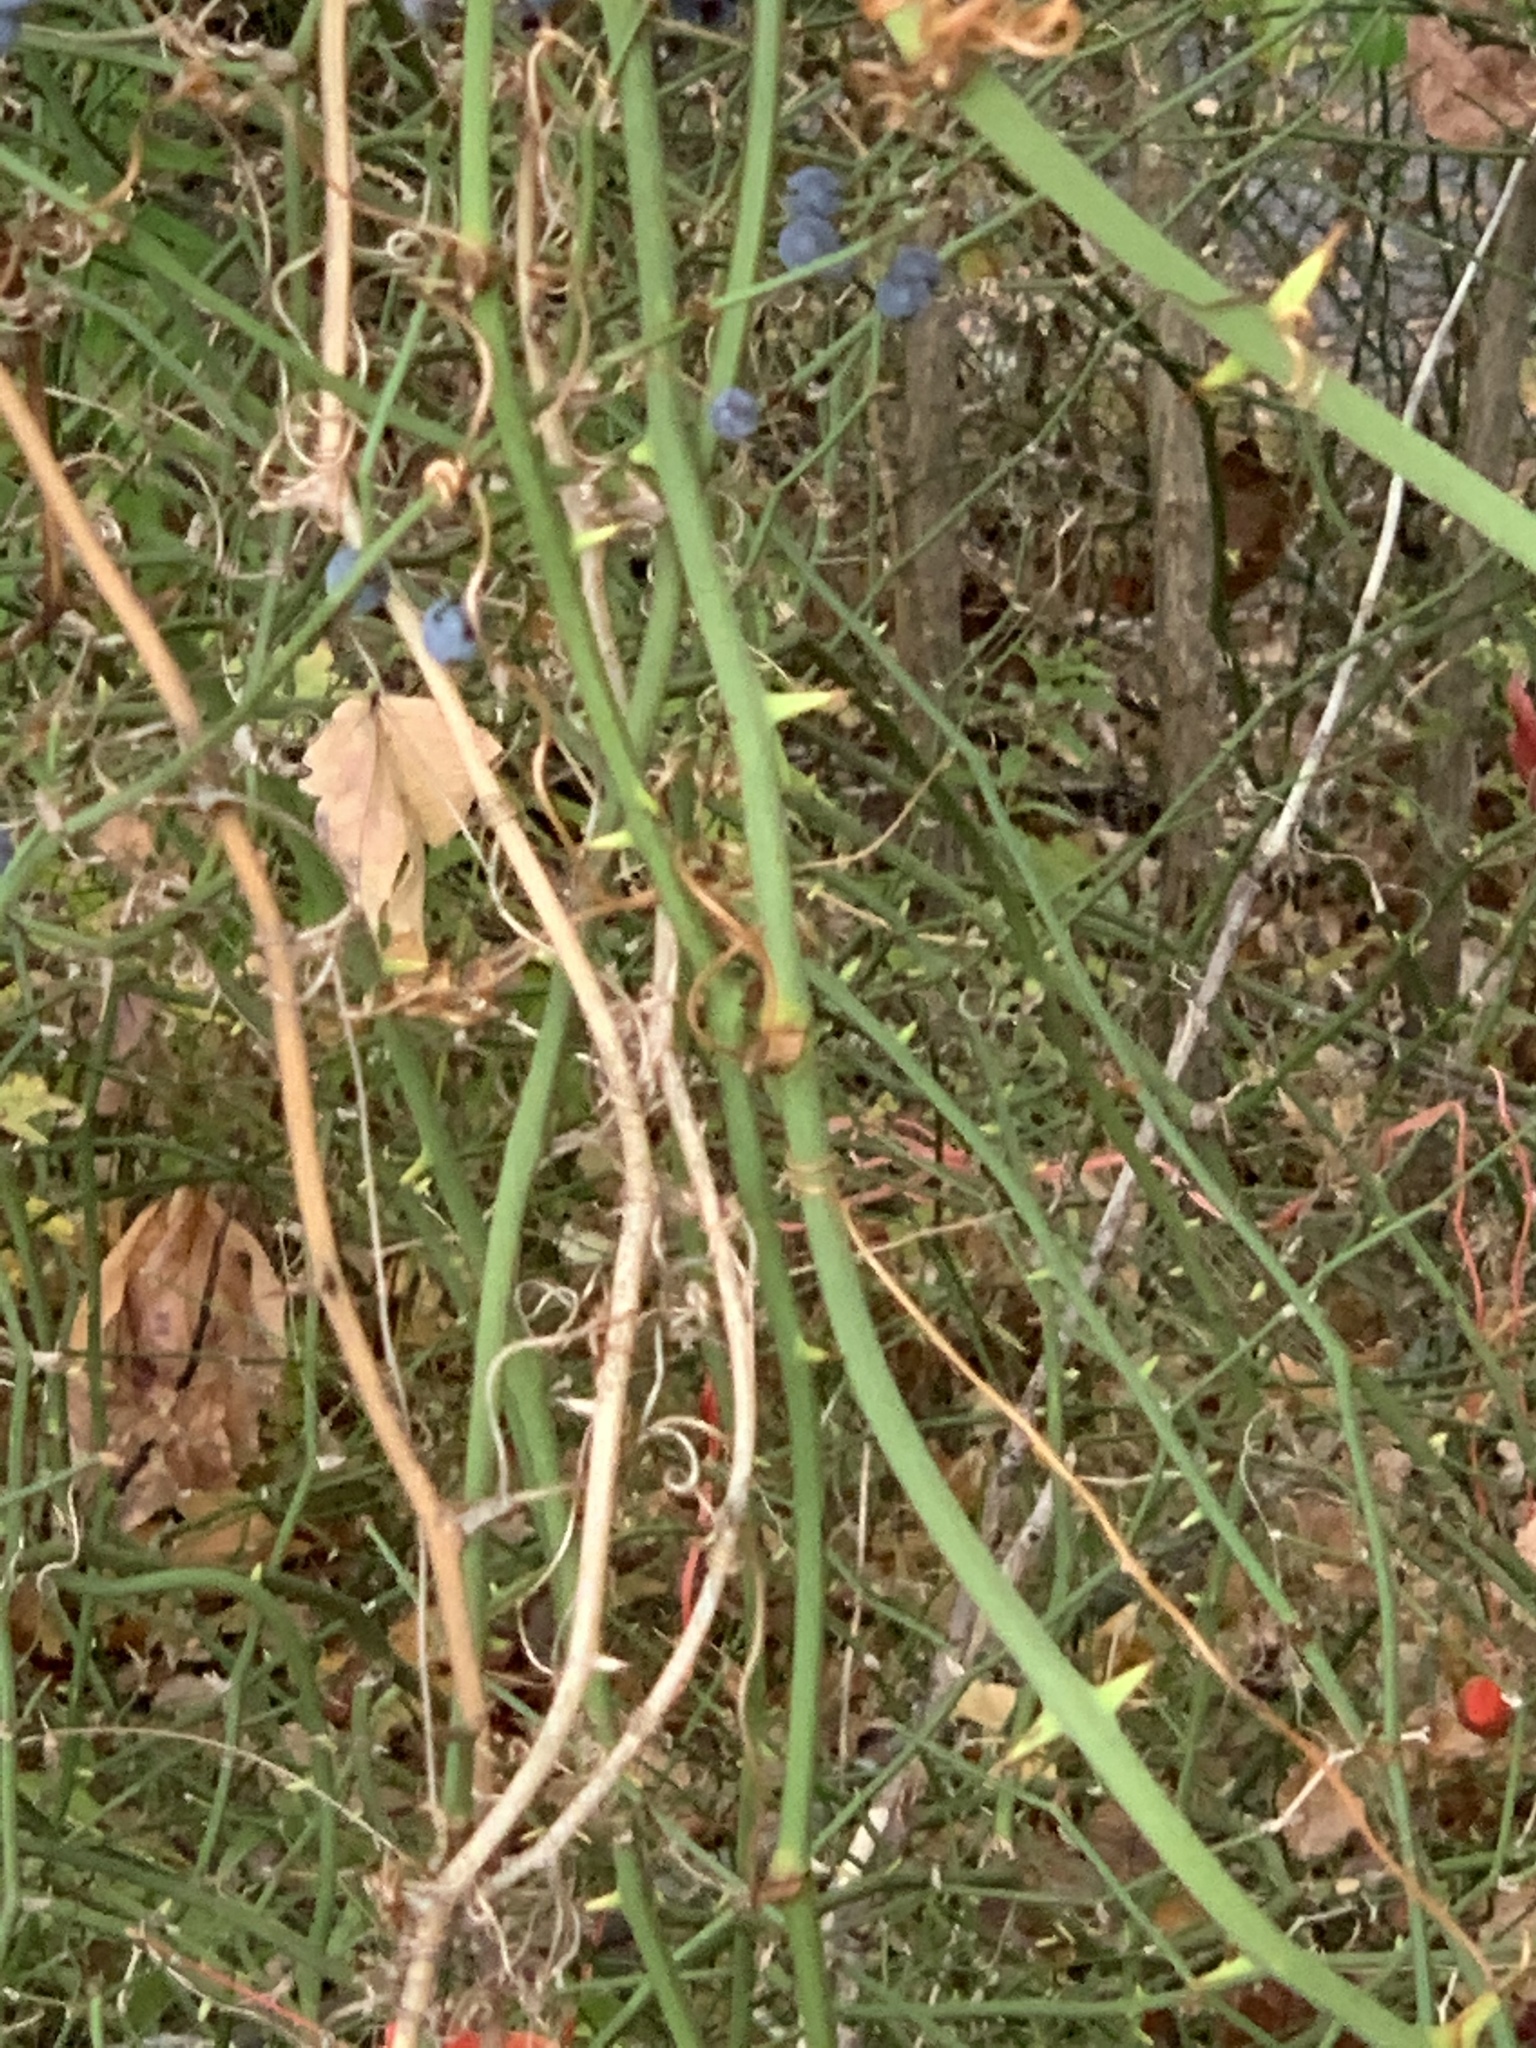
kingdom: Plantae
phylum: Tracheophyta
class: Liliopsida
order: Liliales
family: Smilacaceae
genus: Smilax
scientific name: Smilax rotundifolia
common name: Bullbriar
